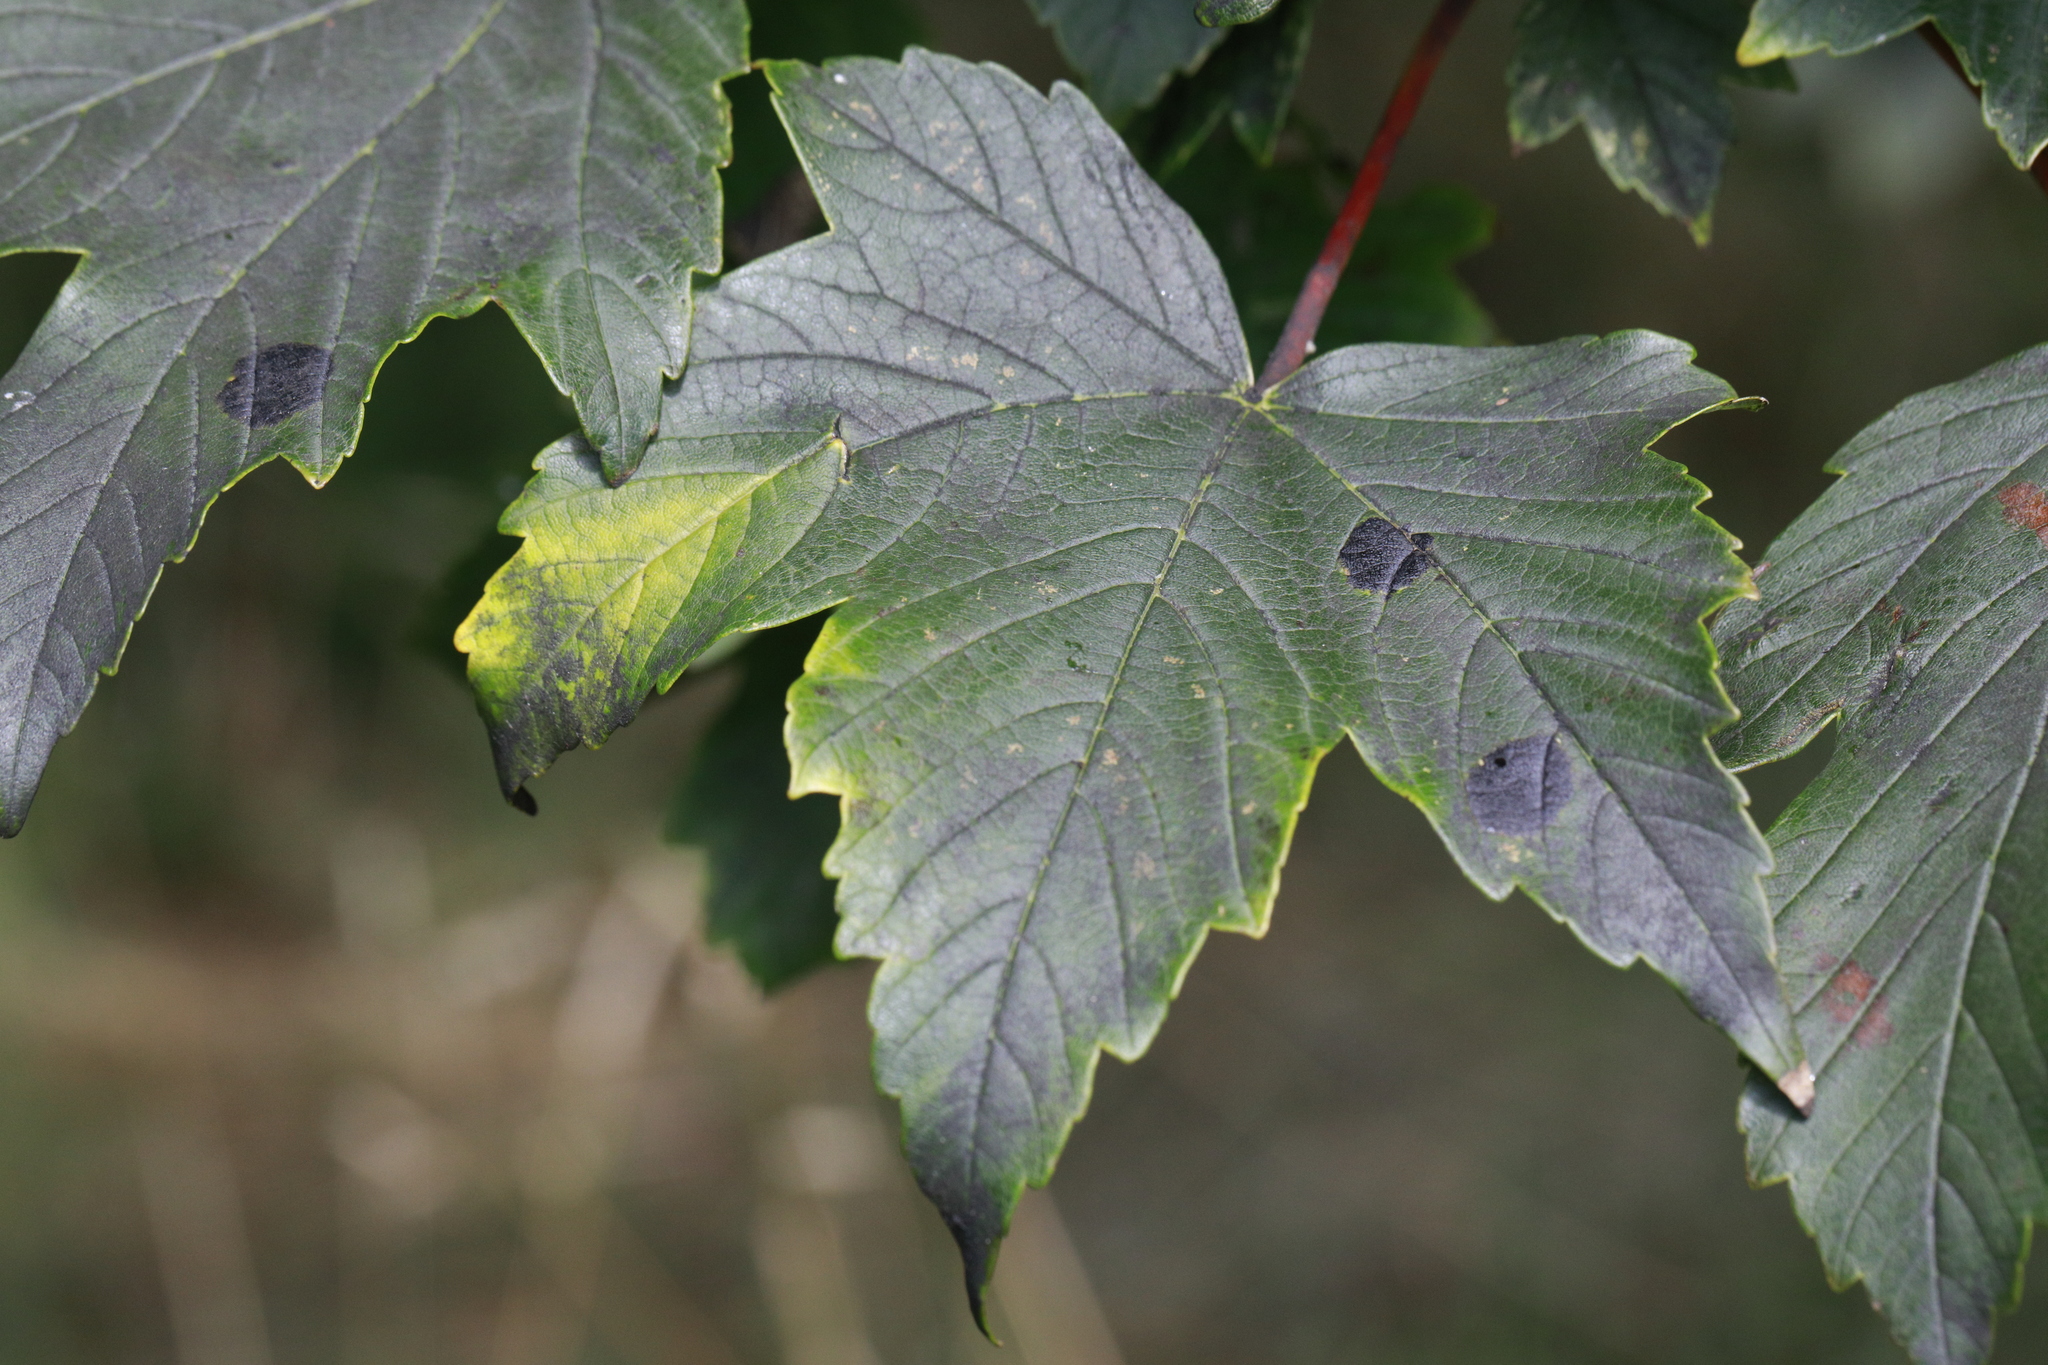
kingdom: Plantae
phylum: Tracheophyta
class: Magnoliopsida
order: Sapindales
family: Sapindaceae
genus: Acer
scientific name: Acer pseudoplatanus
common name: Sycamore
